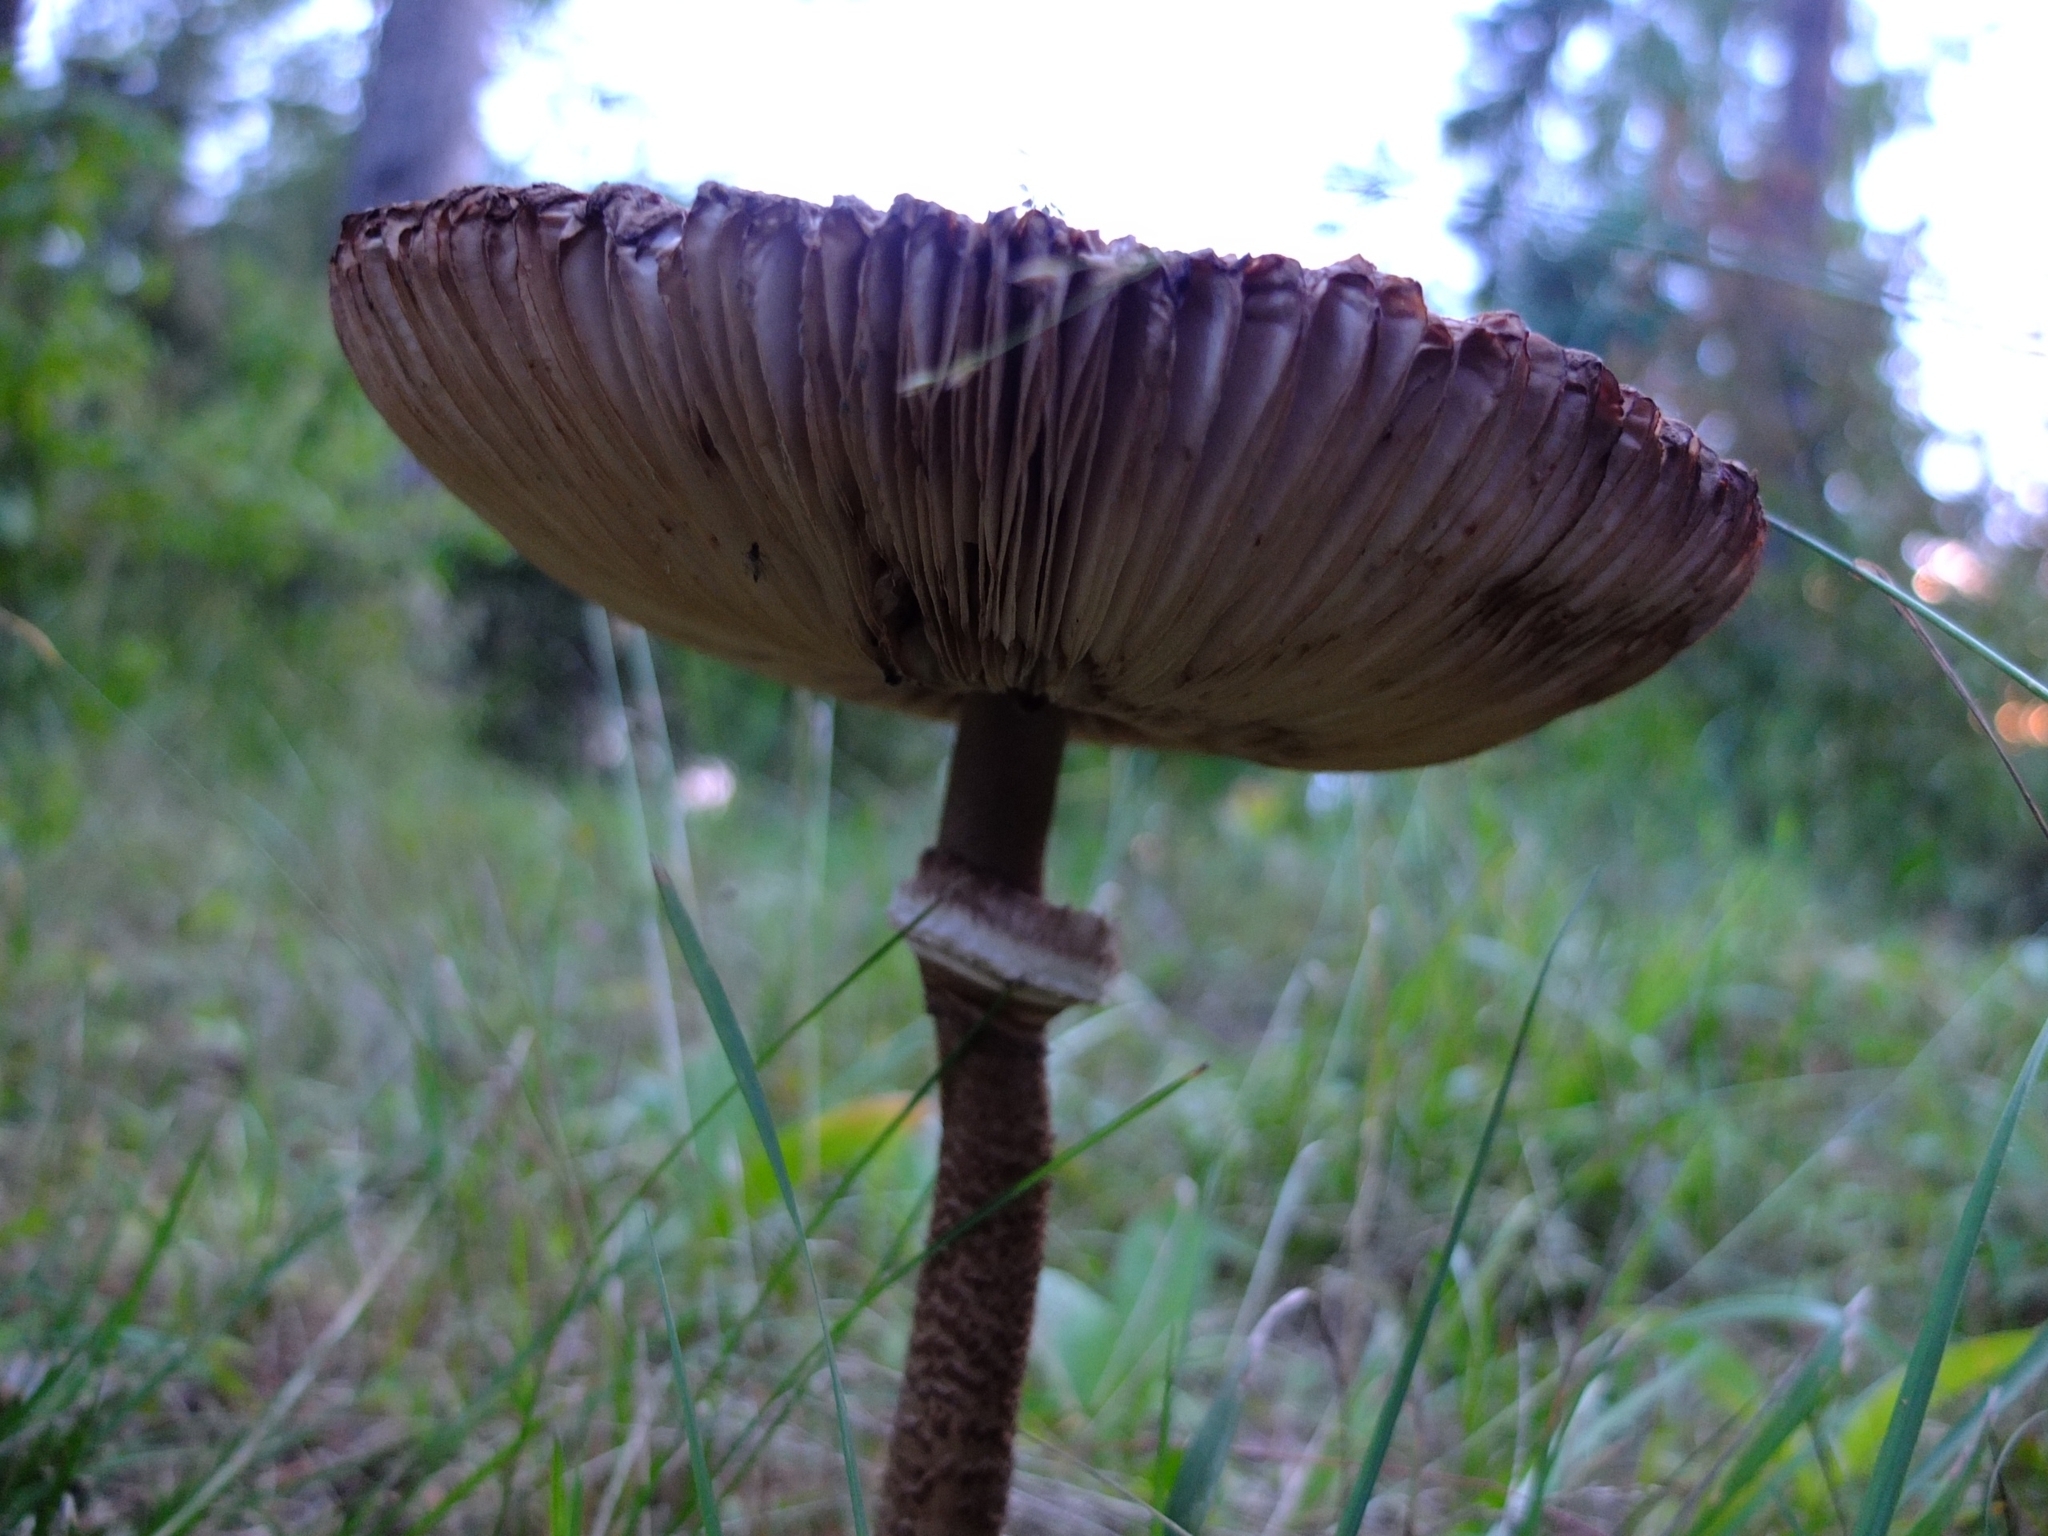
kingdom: Fungi
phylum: Basidiomycota
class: Agaricomycetes
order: Agaricales
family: Agaricaceae
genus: Macrolepiota
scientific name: Macrolepiota procera
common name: Parasol
